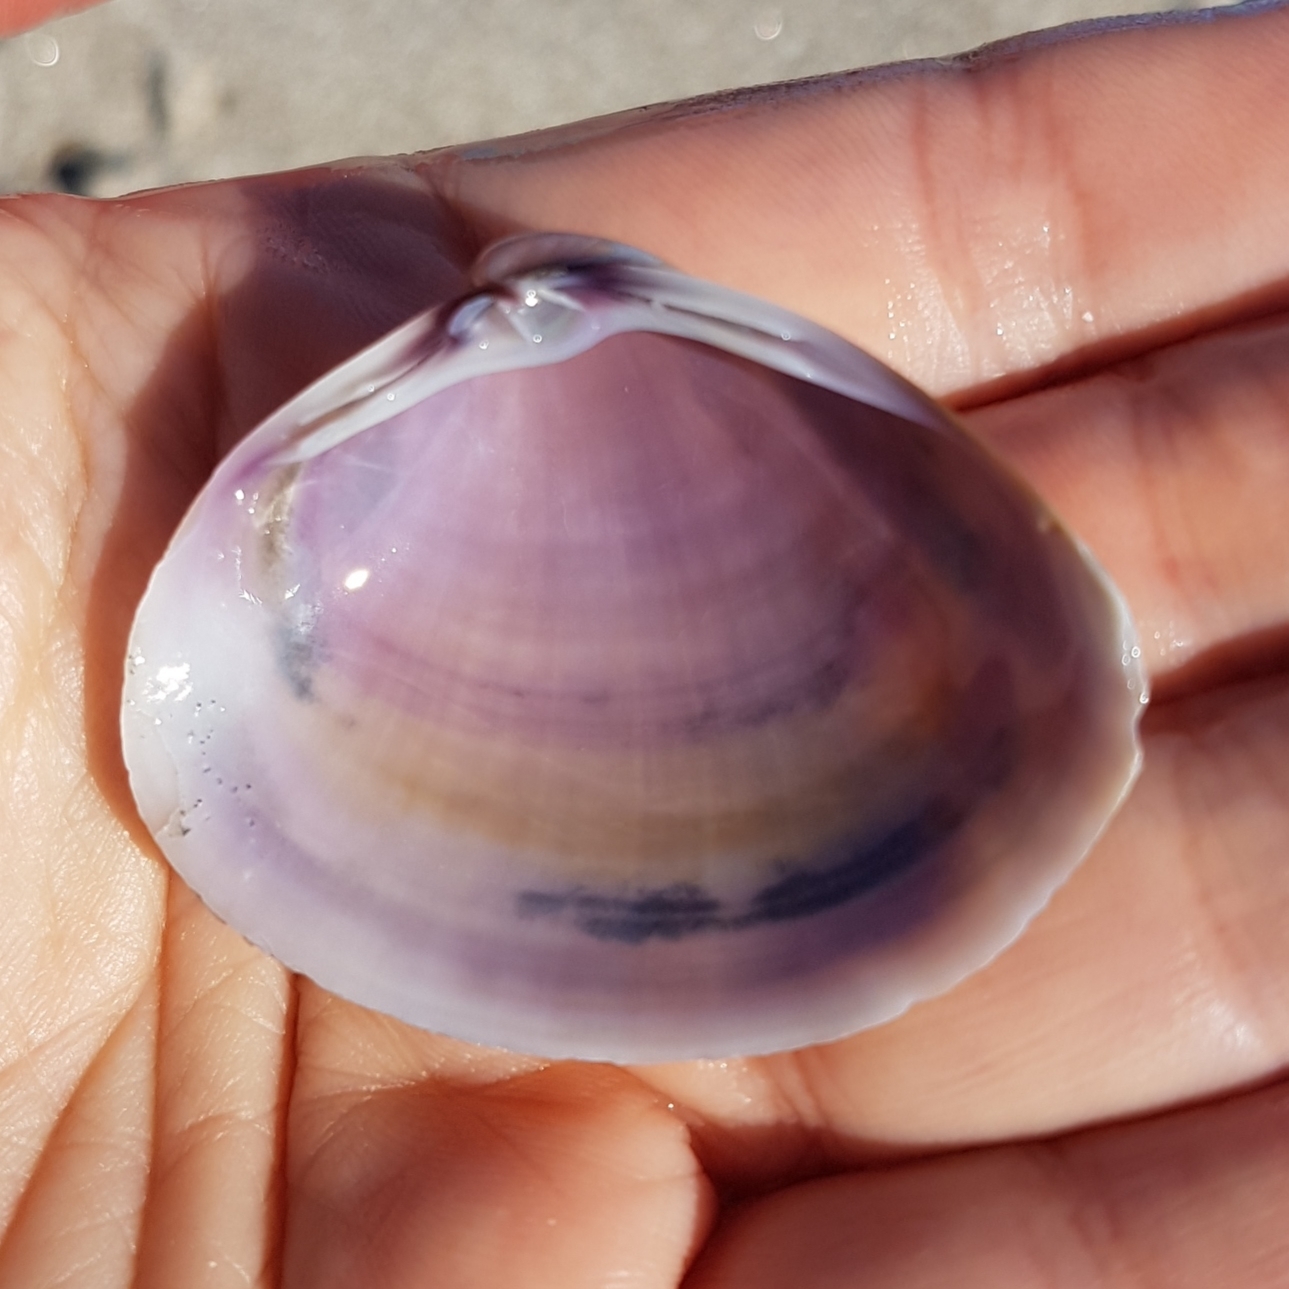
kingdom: Animalia
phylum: Mollusca
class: Bivalvia
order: Venerida
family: Mactridae
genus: Mactra
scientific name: Mactra stultorum
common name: Rayed trough shell
